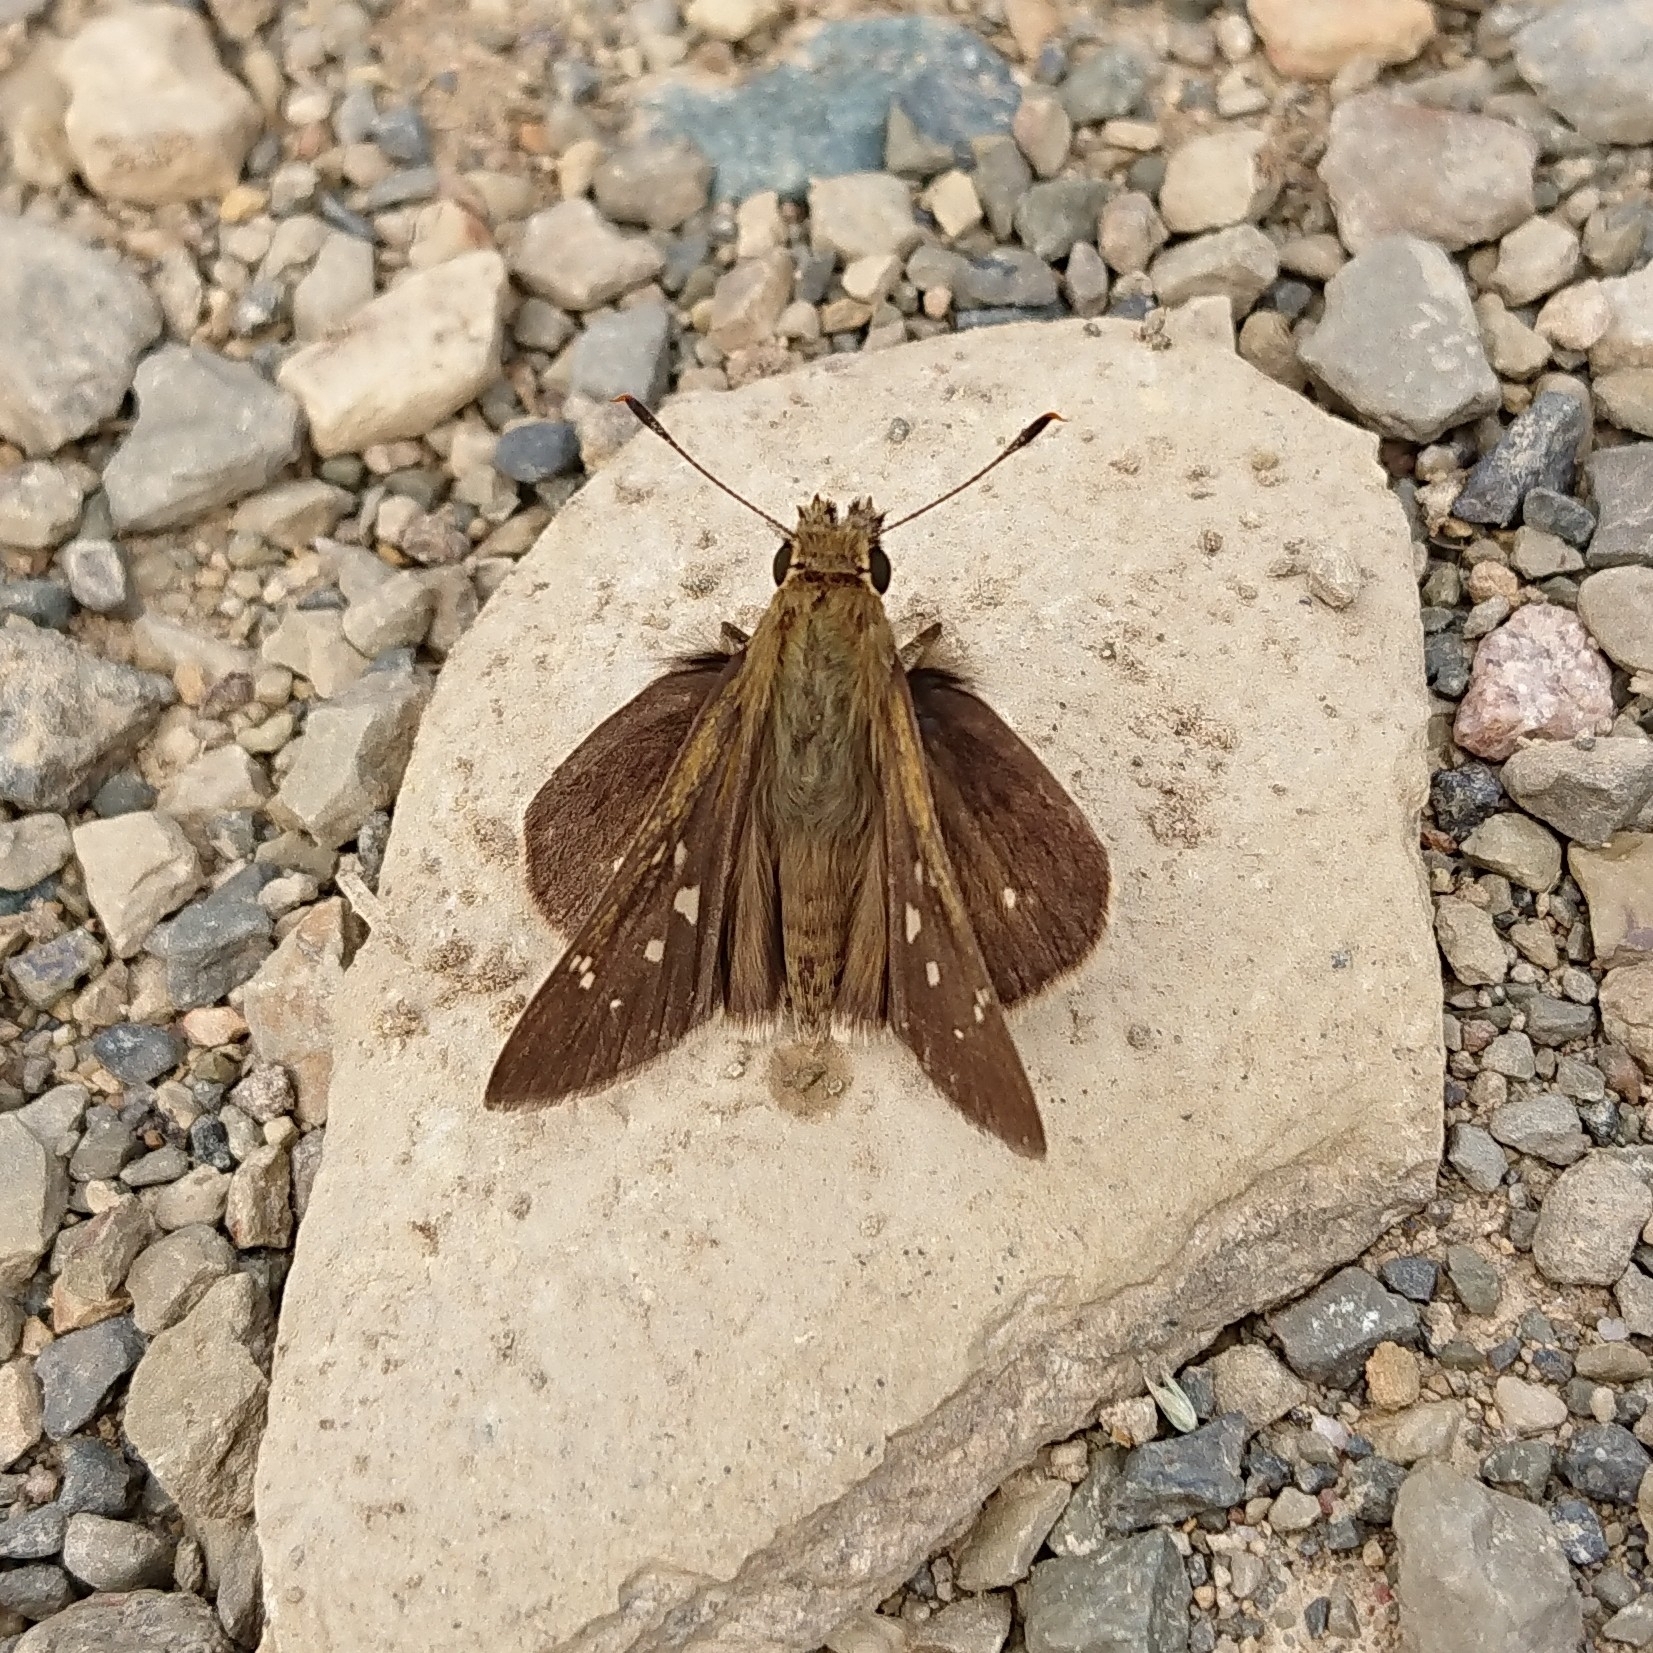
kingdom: Animalia
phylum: Arthropoda
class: Insecta
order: Lepidoptera
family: Hesperiidae
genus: Borbo
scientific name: Borbo fallax
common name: False swift
